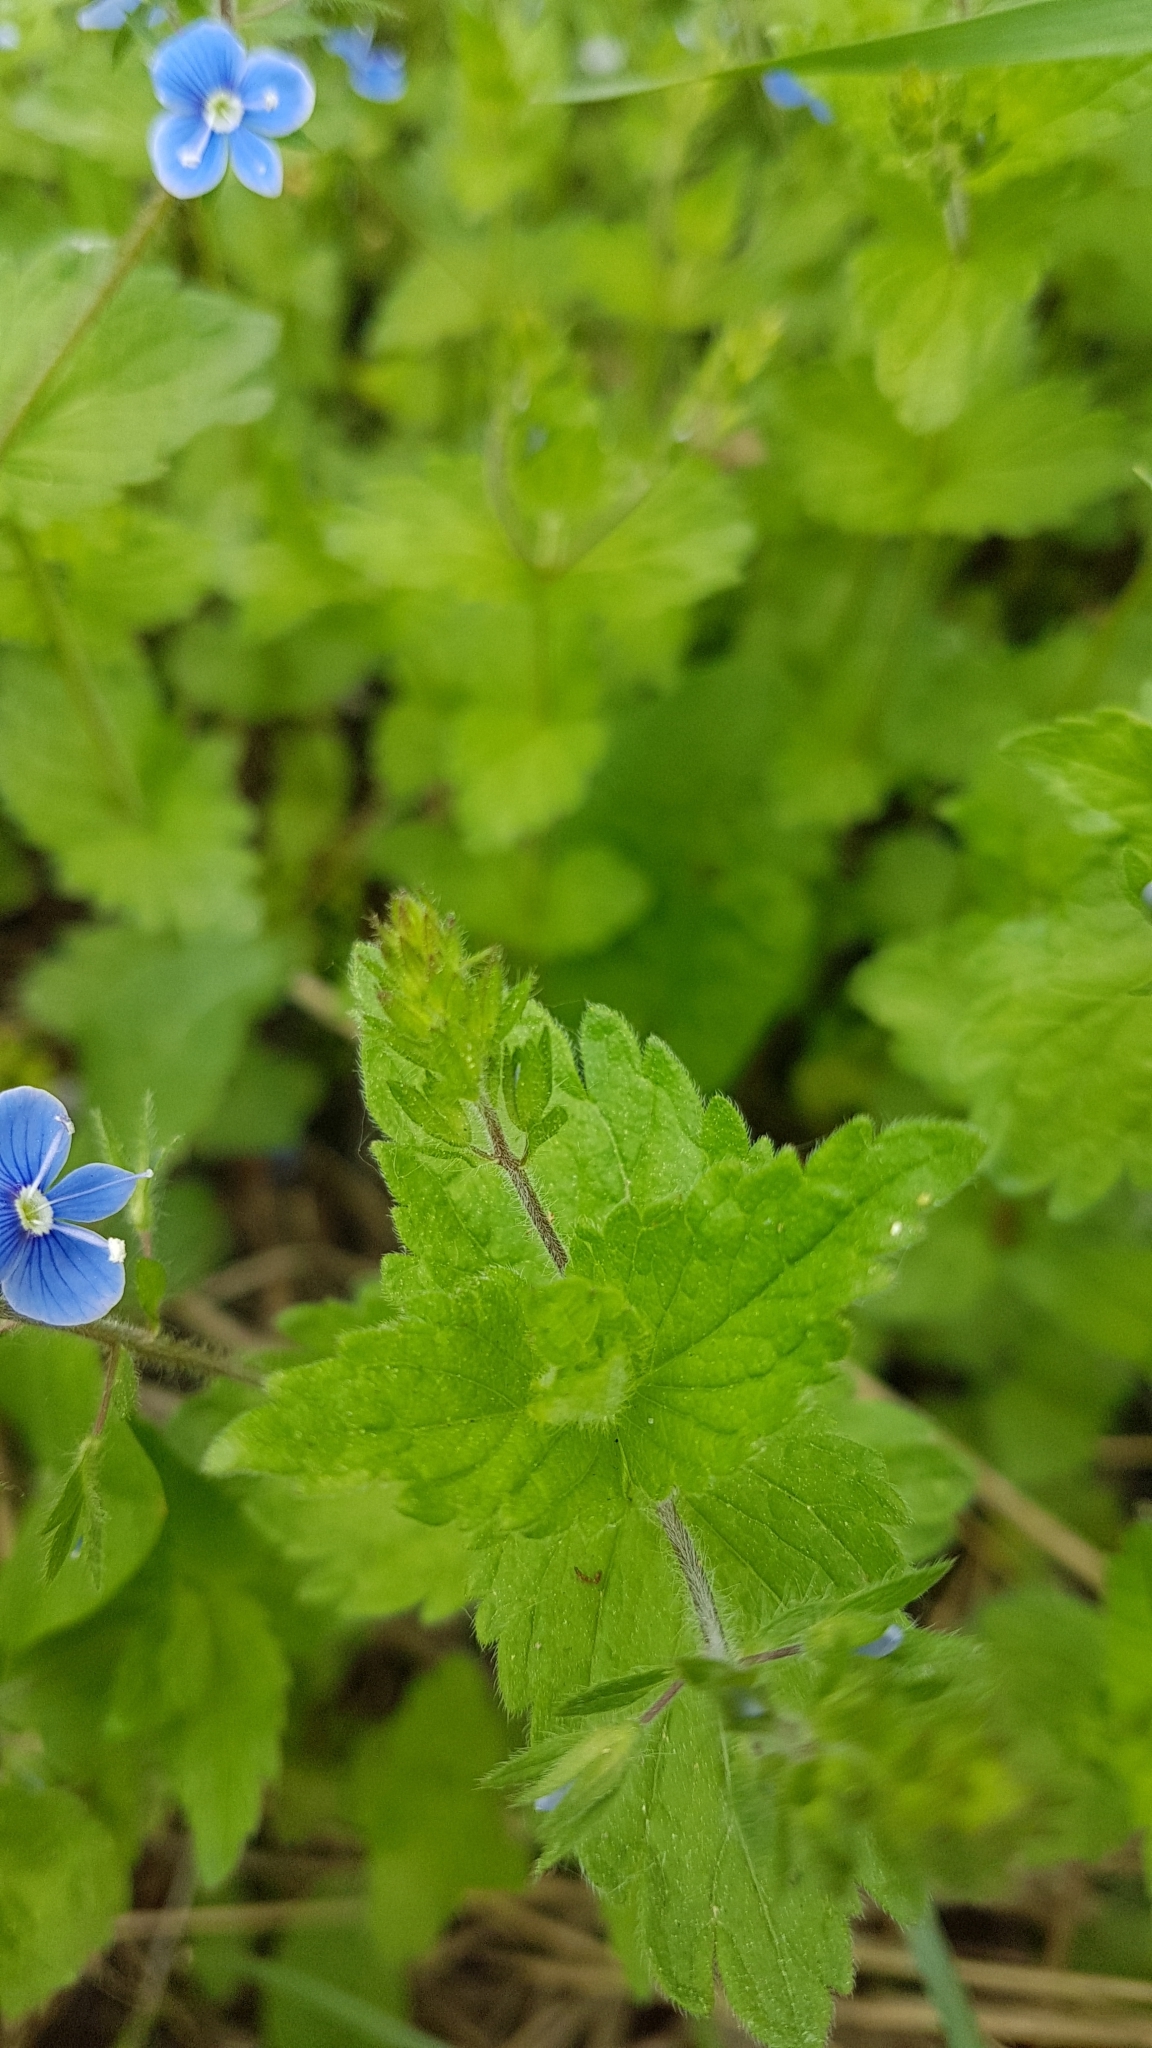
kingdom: Plantae
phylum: Tracheophyta
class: Magnoliopsida
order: Lamiales
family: Plantaginaceae
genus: Veronica
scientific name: Veronica chamaedrys
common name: Germander speedwell
